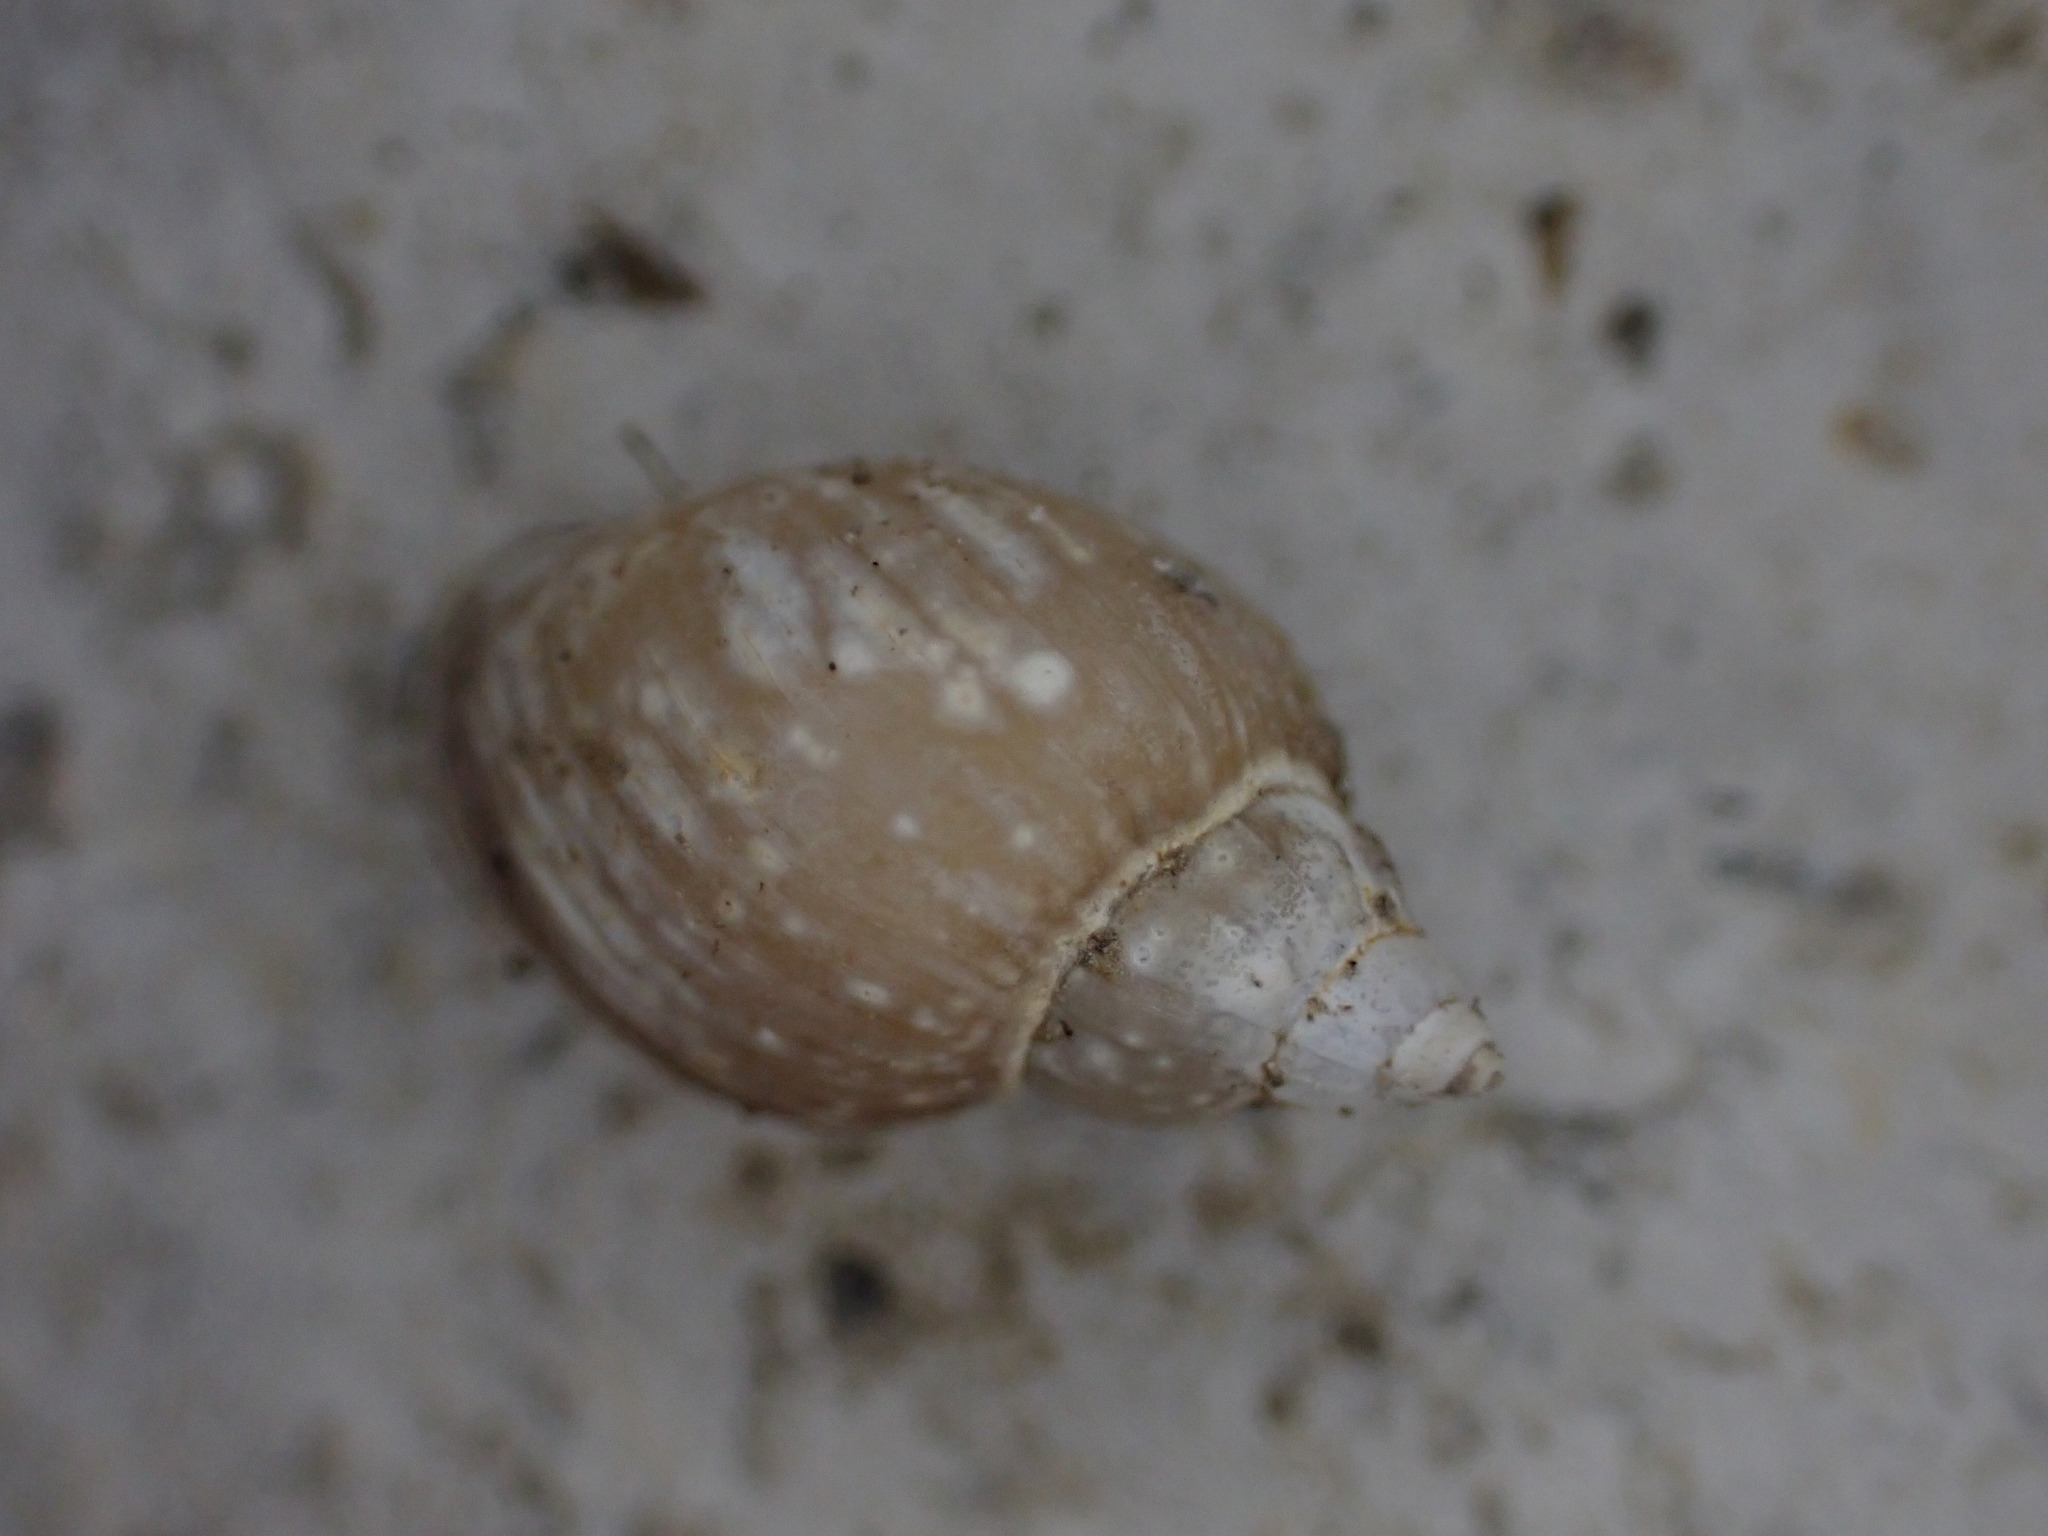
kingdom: Animalia
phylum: Mollusca
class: Gastropoda
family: Physidae
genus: Physella
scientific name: Physella acuta
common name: European physa
